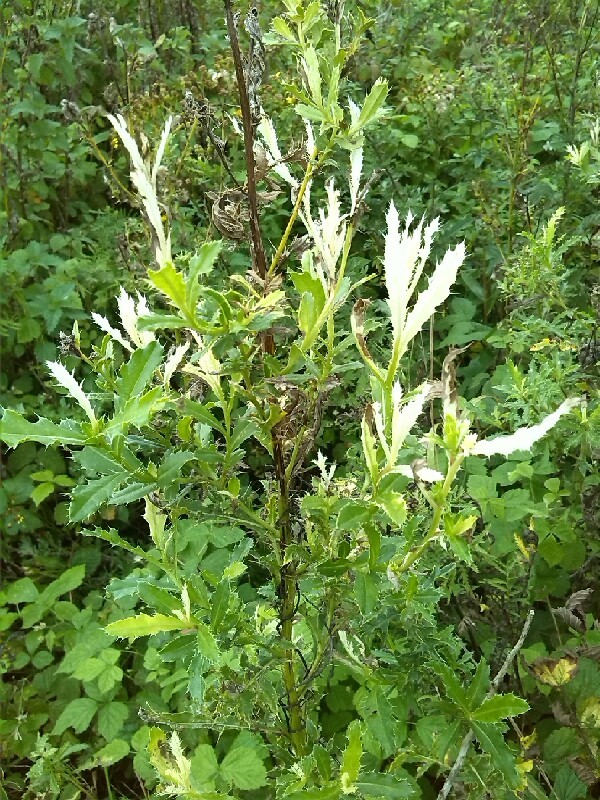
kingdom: Bacteria
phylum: Proteobacteria
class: Gammaproteobacteria
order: Pseudomonadales
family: Pseudomonadaceae
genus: Pseudomonas
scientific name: Pseudomonas syringae
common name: Bacterial speck
